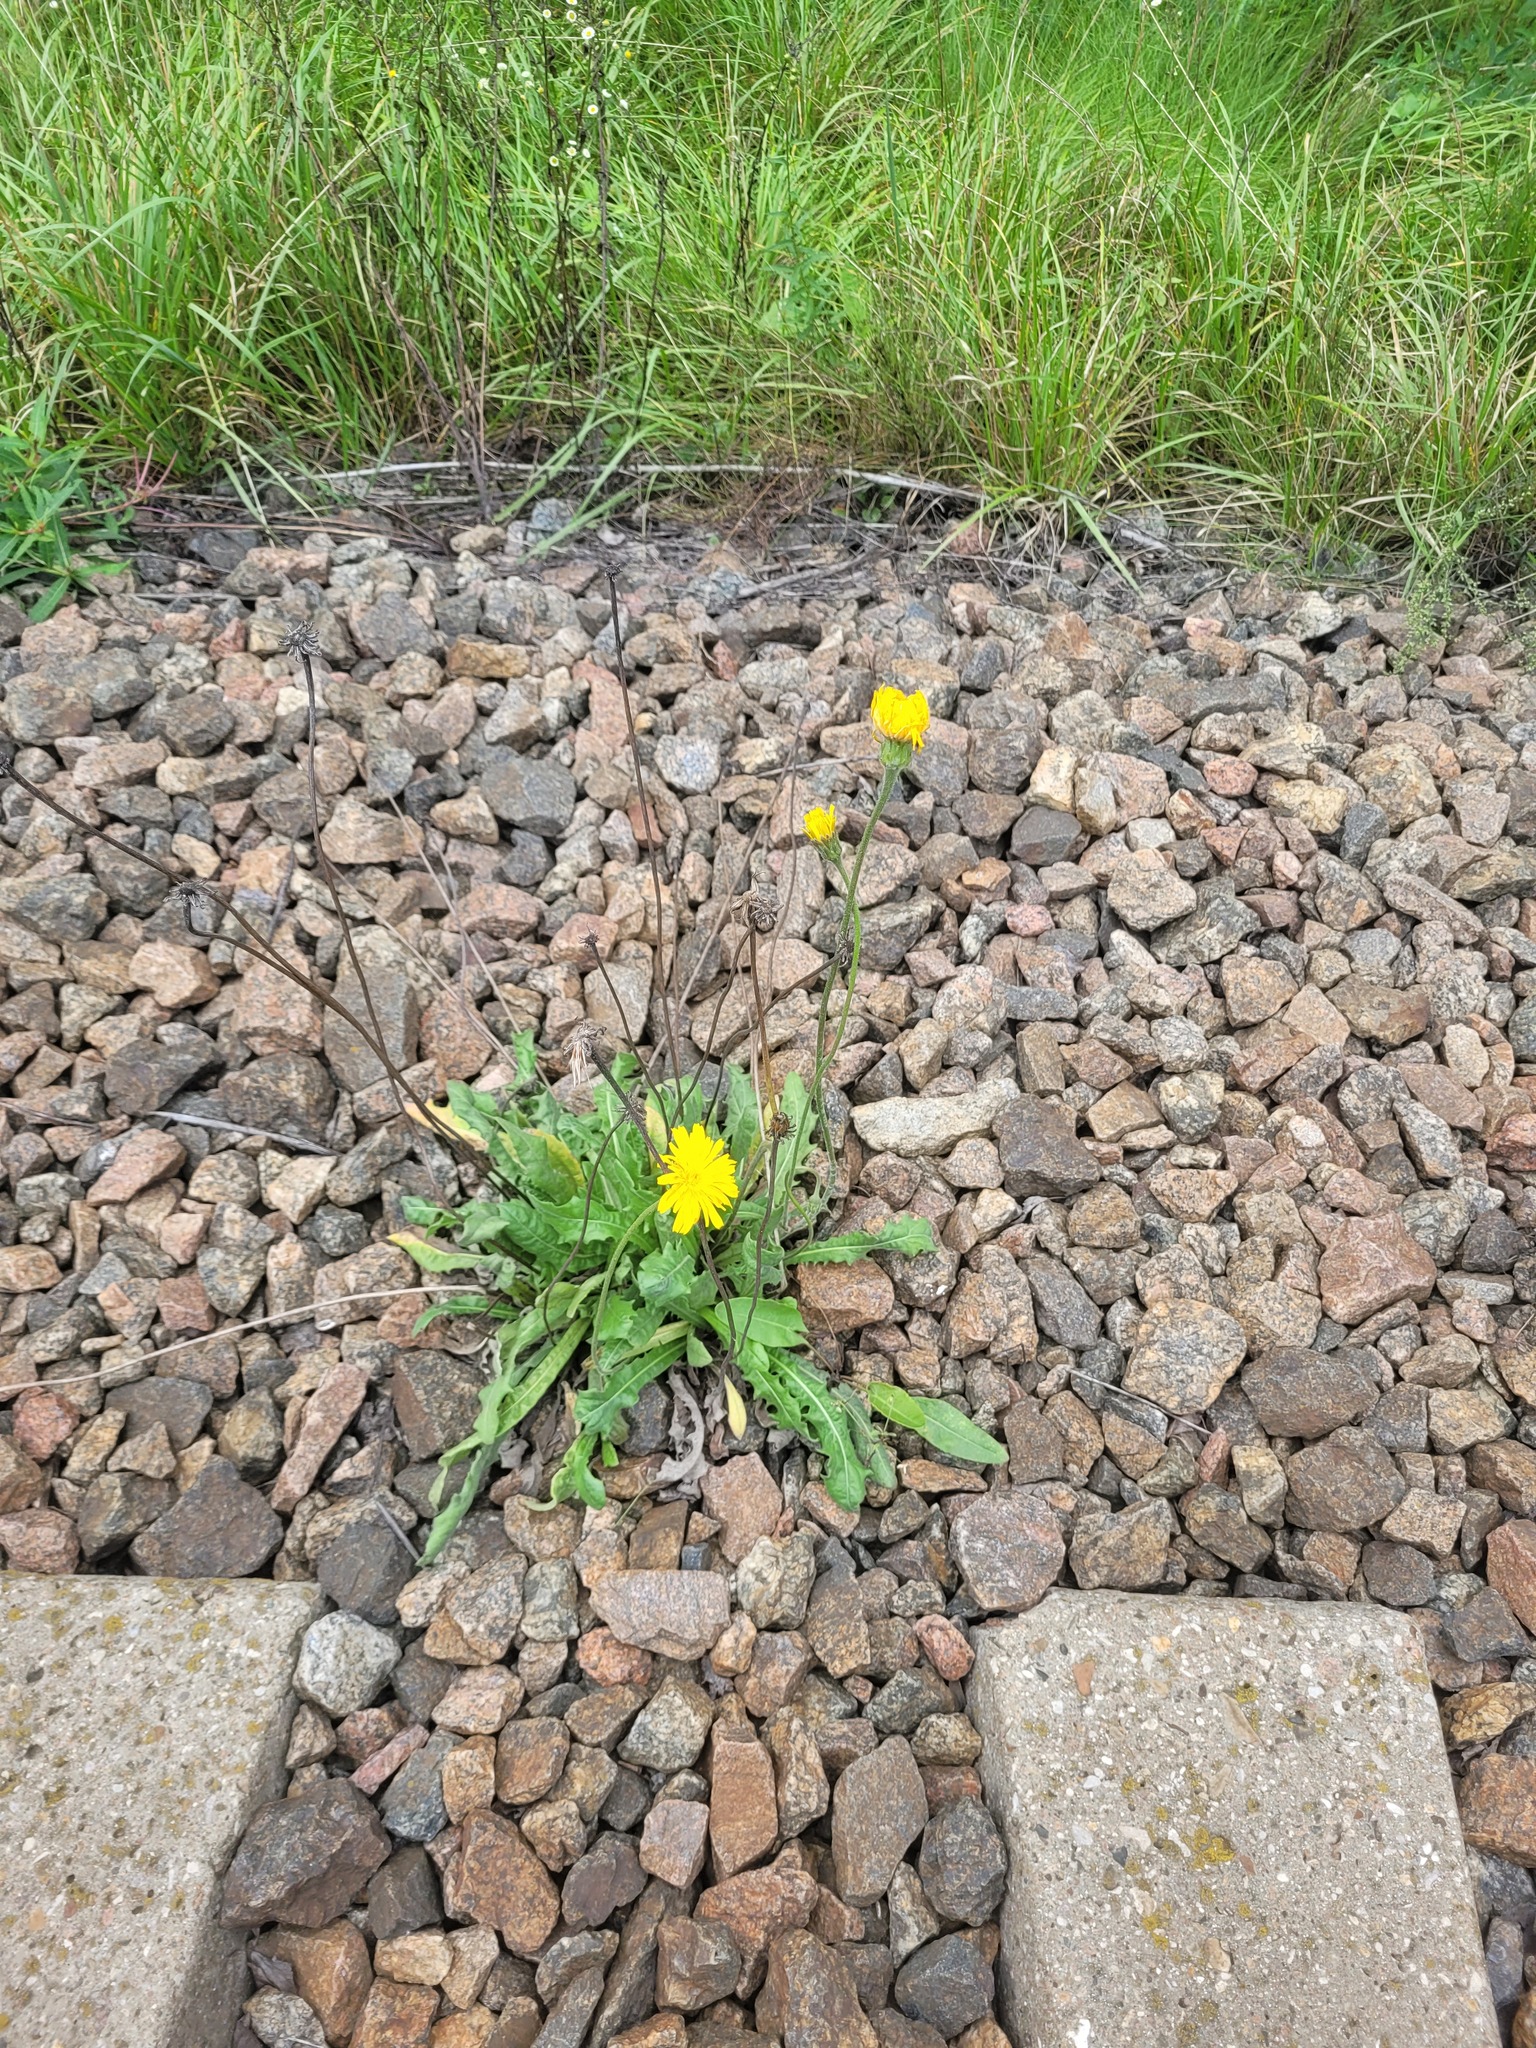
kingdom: Plantae
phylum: Tracheophyta
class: Magnoliopsida
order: Asterales
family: Asteraceae
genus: Leontodon
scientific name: Leontodon hispidus
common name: Rough hawkbit
